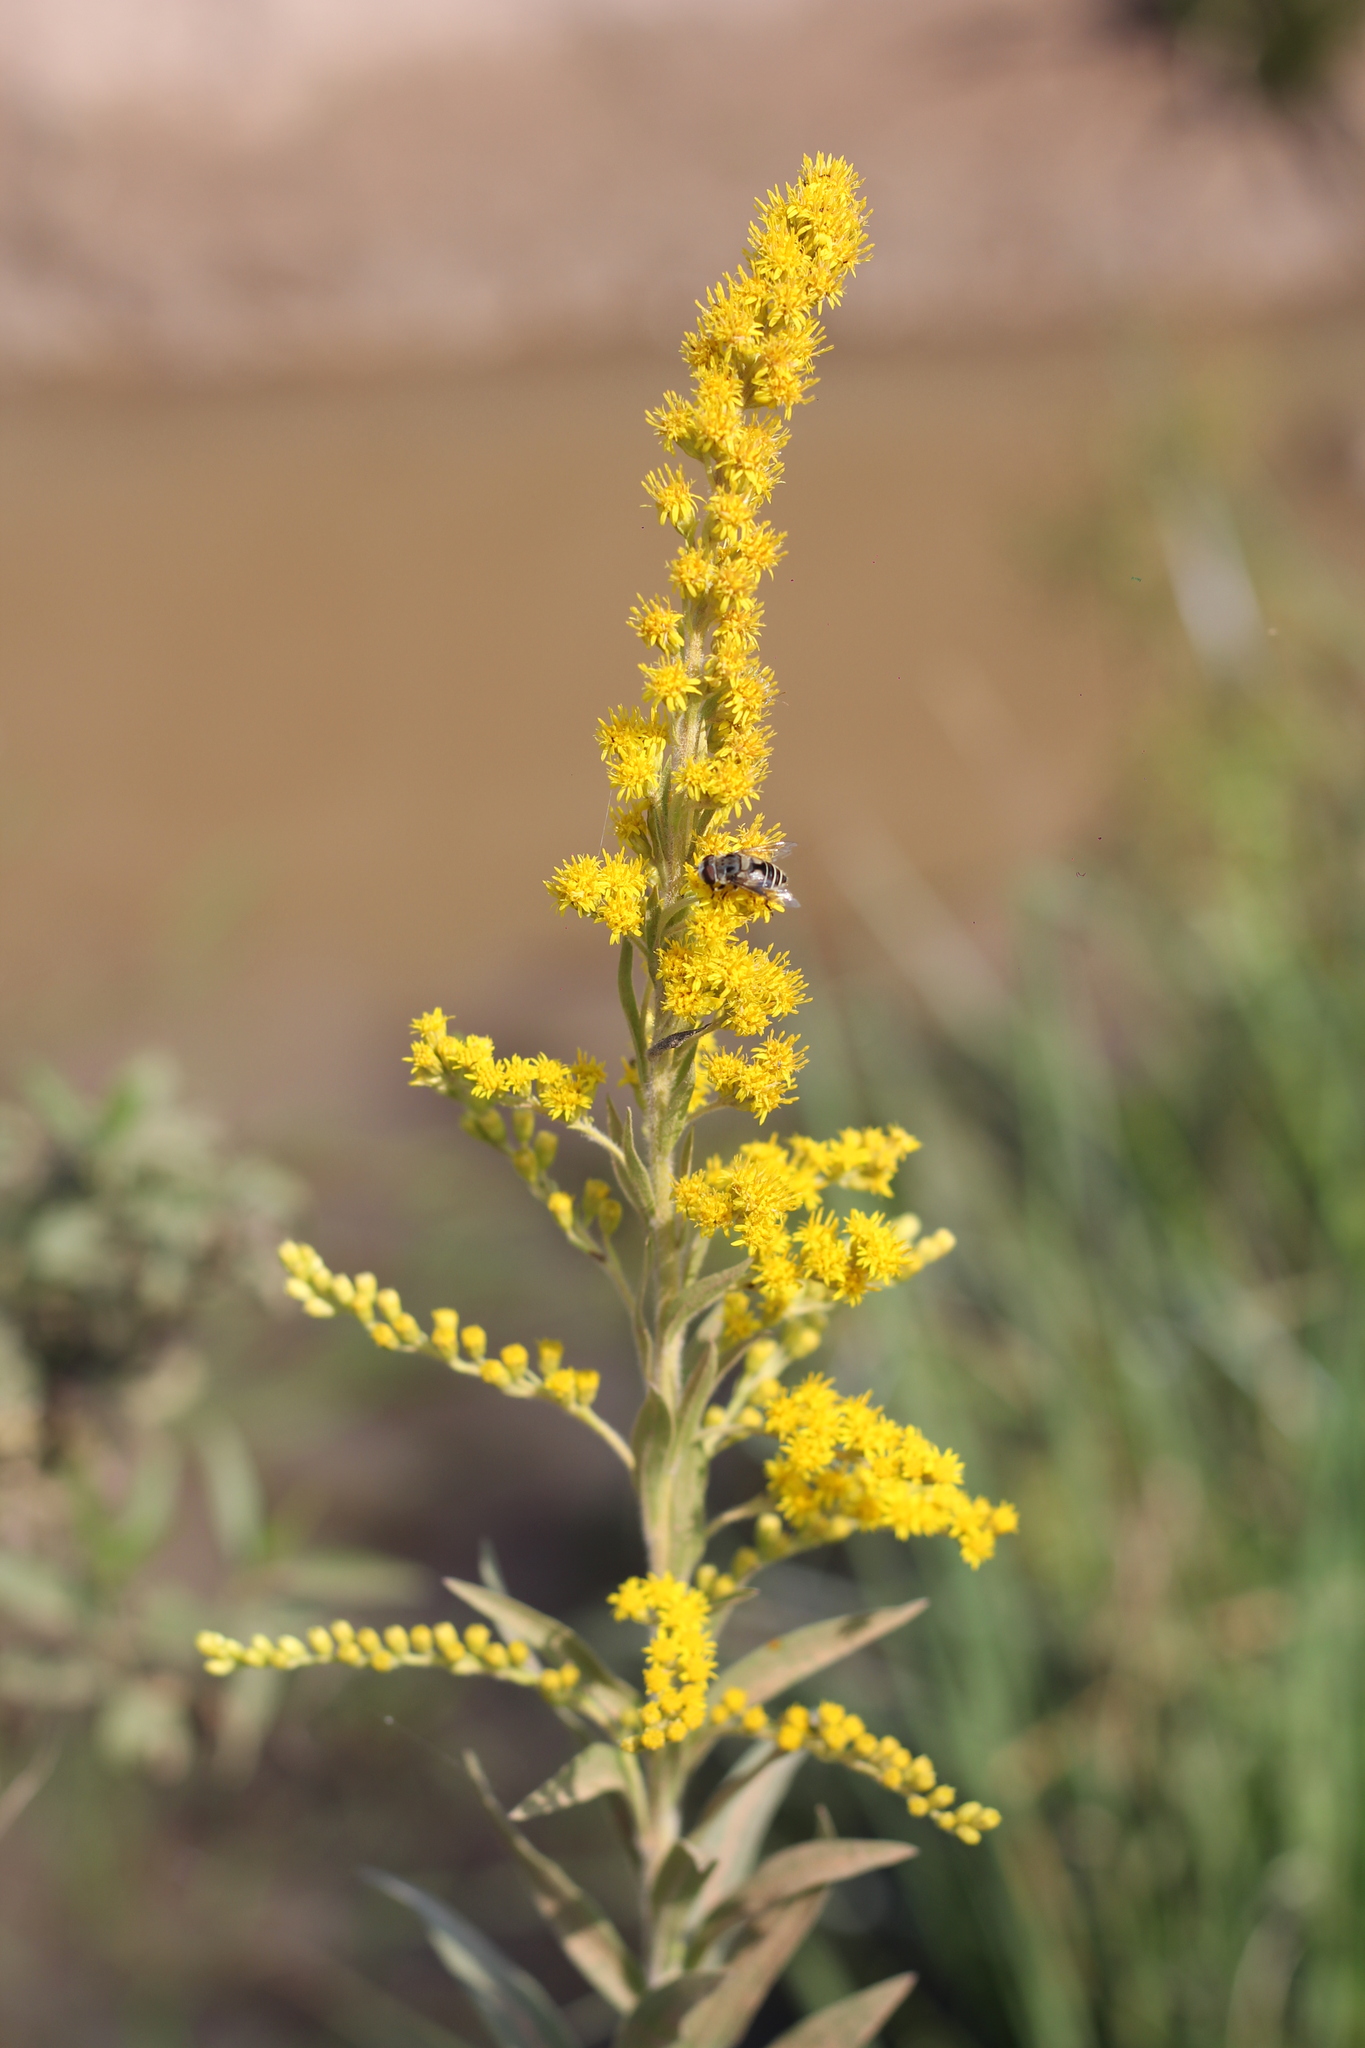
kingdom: Plantae
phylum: Tracheophyta
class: Magnoliopsida
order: Asterales
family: Asteraceae
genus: Solidago
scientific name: Solidago chilensis
